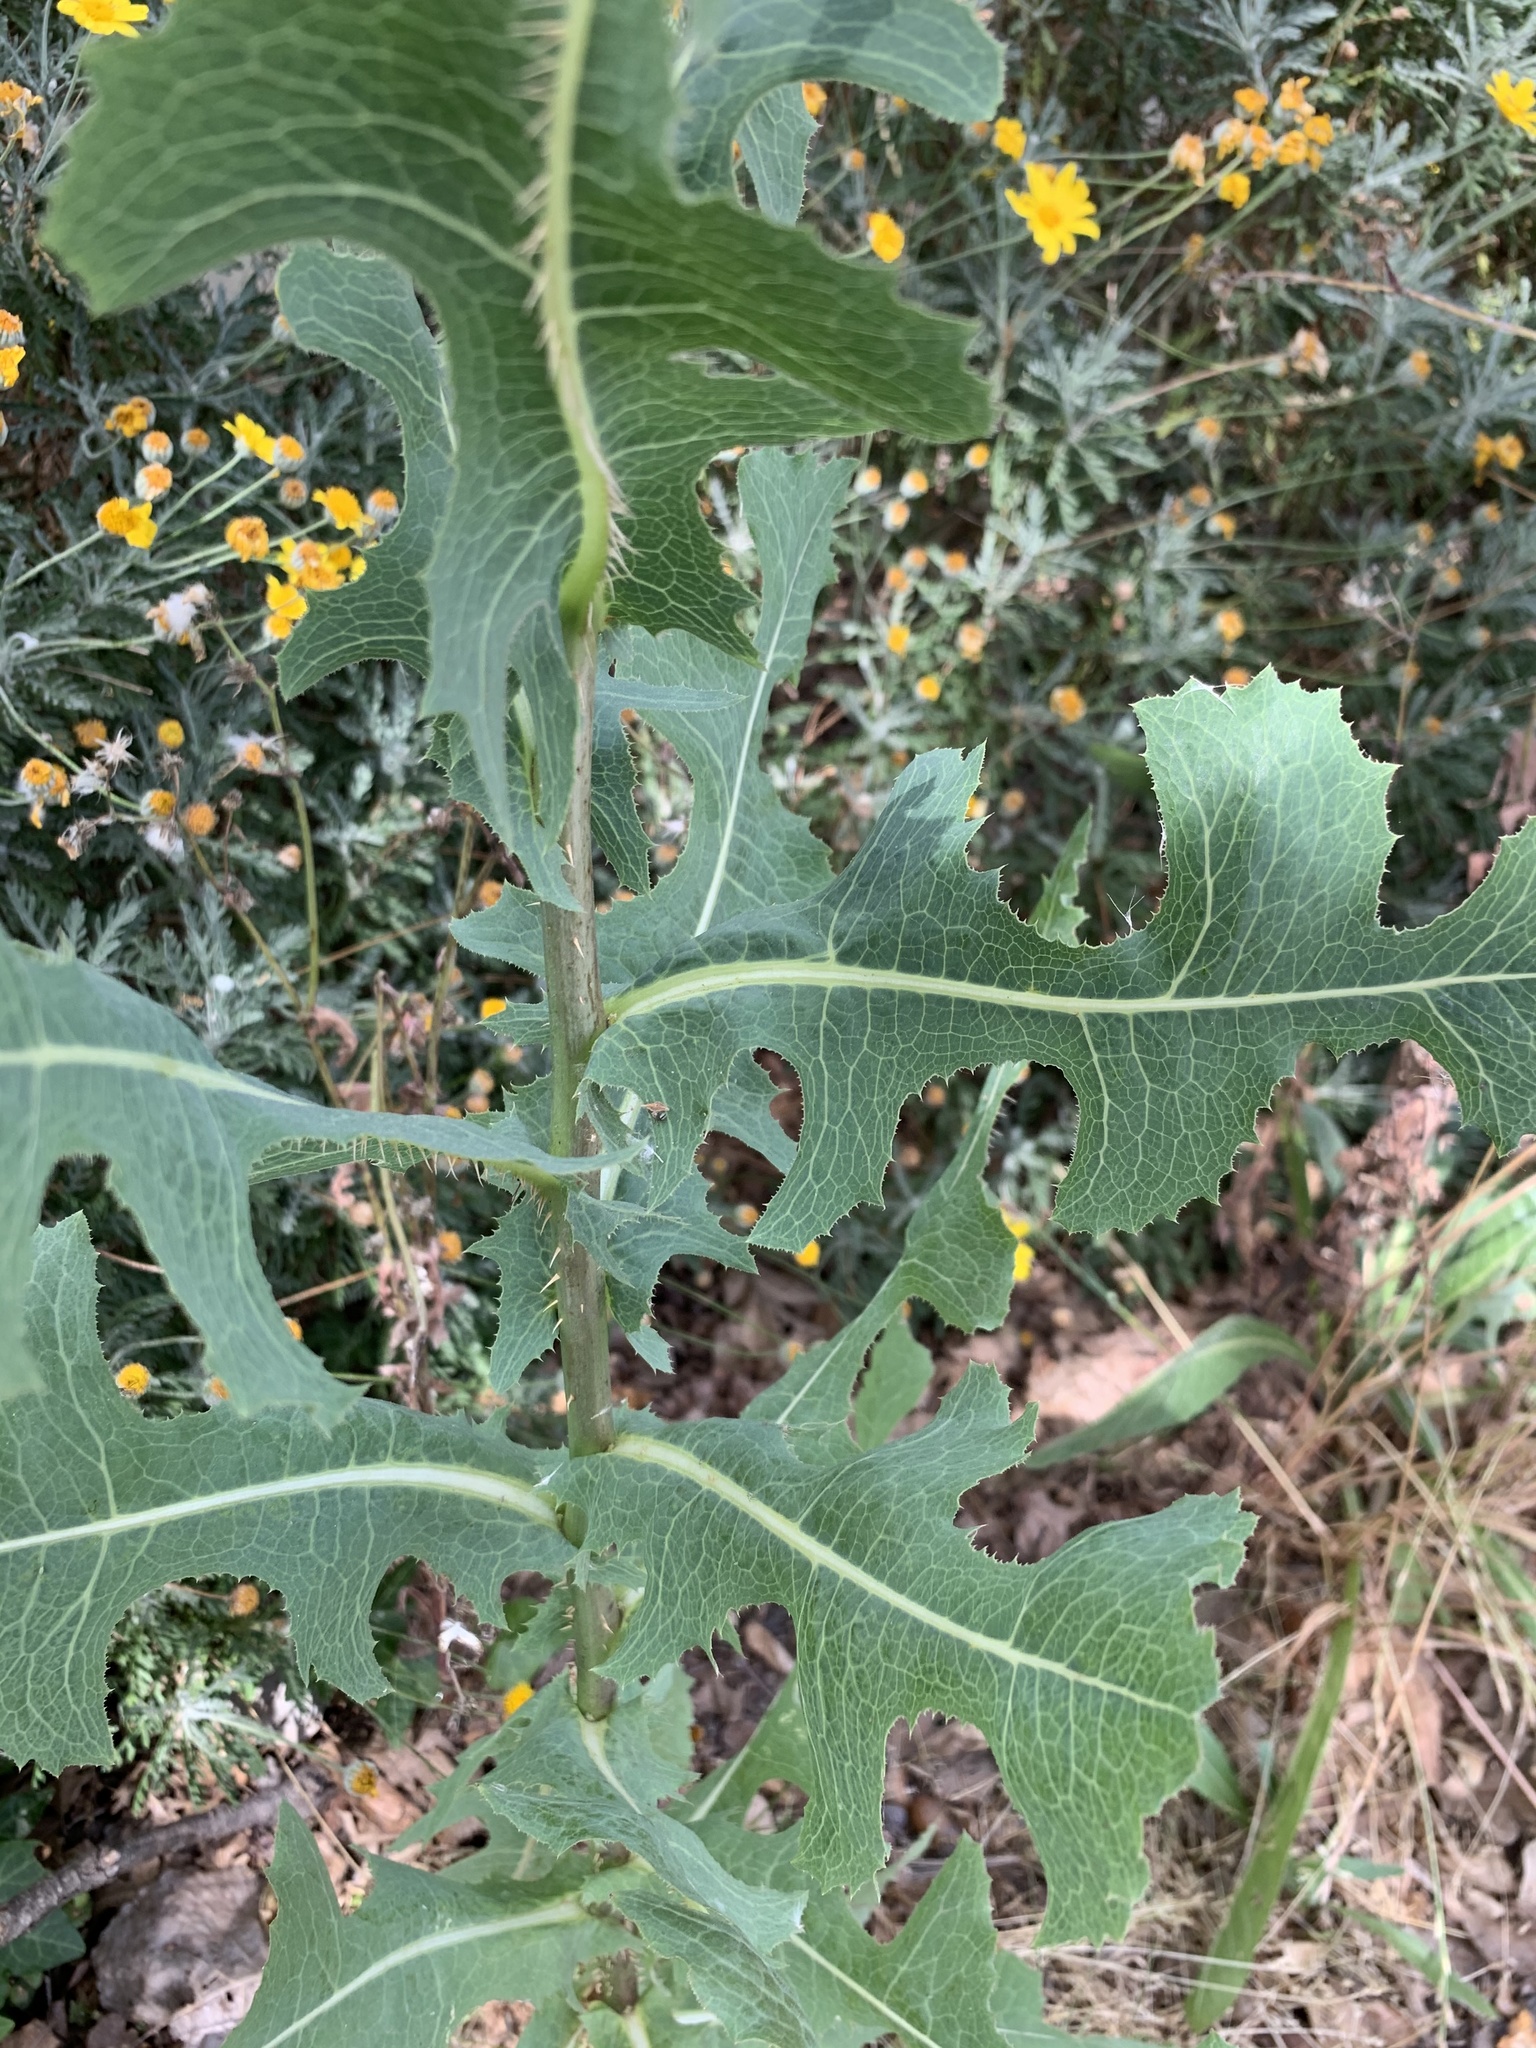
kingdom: Plantae
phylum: Tracheophyta
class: Magnoliopsida
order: Asterales
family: Asteraceae
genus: Lactuca
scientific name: Lactuca serriola
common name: Prickly lettuce
